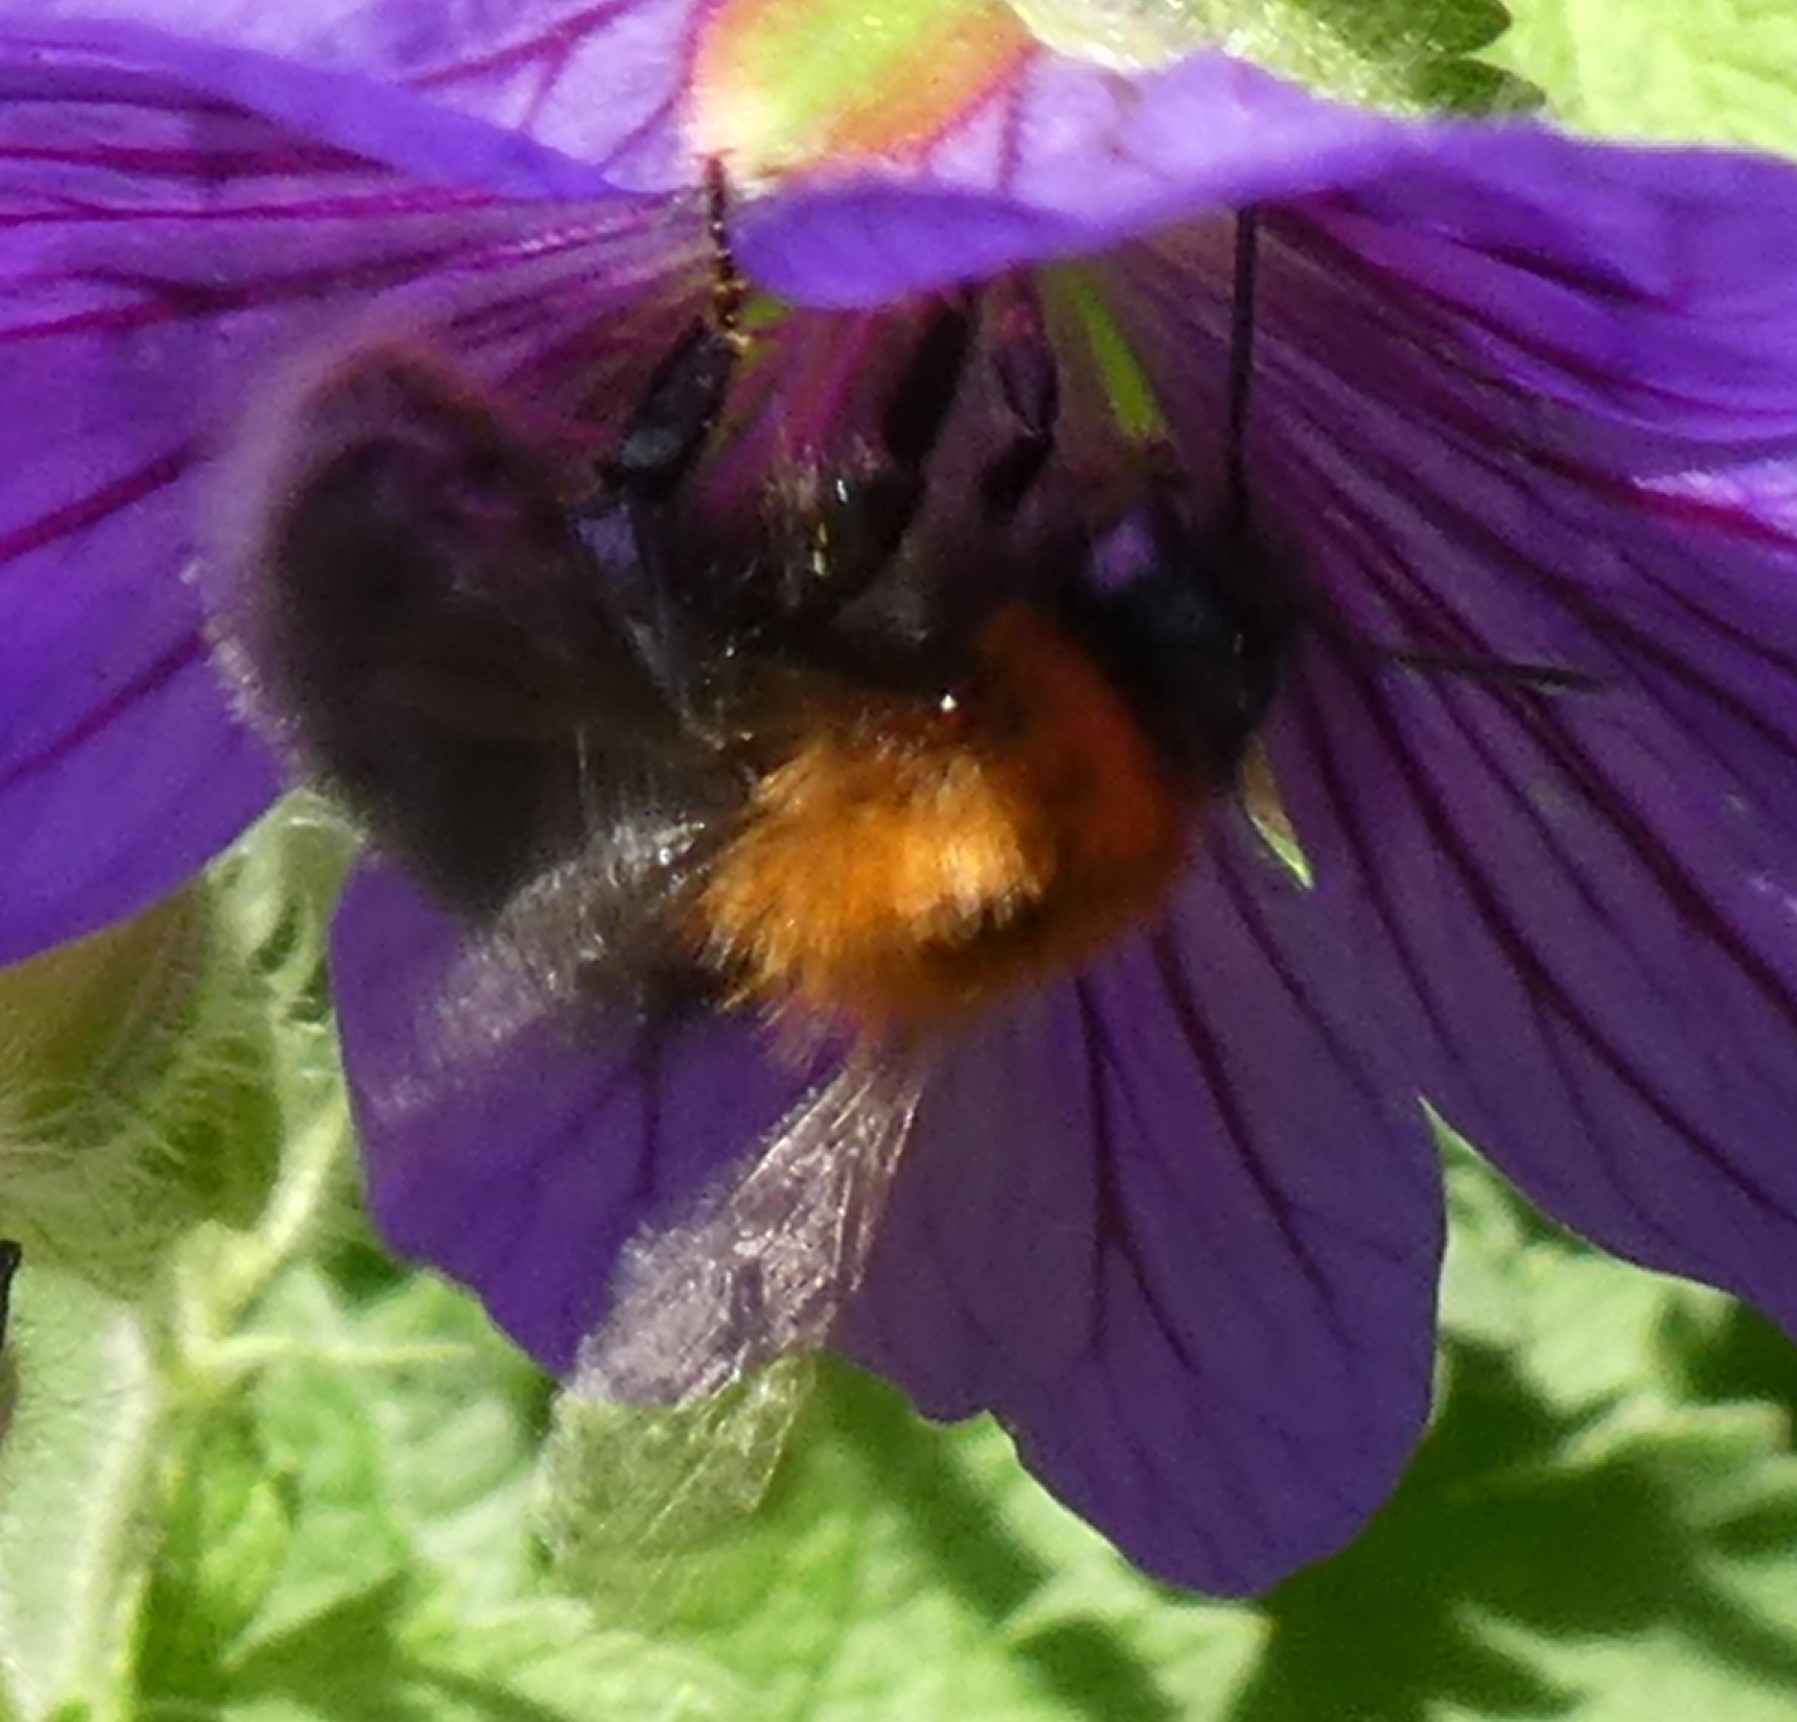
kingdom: Animalia
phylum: Arthropoda
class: Insecta
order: Hymenoptera
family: Apidae
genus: Bombus
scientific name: Bombus hypnorum
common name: New garden bumblebee
